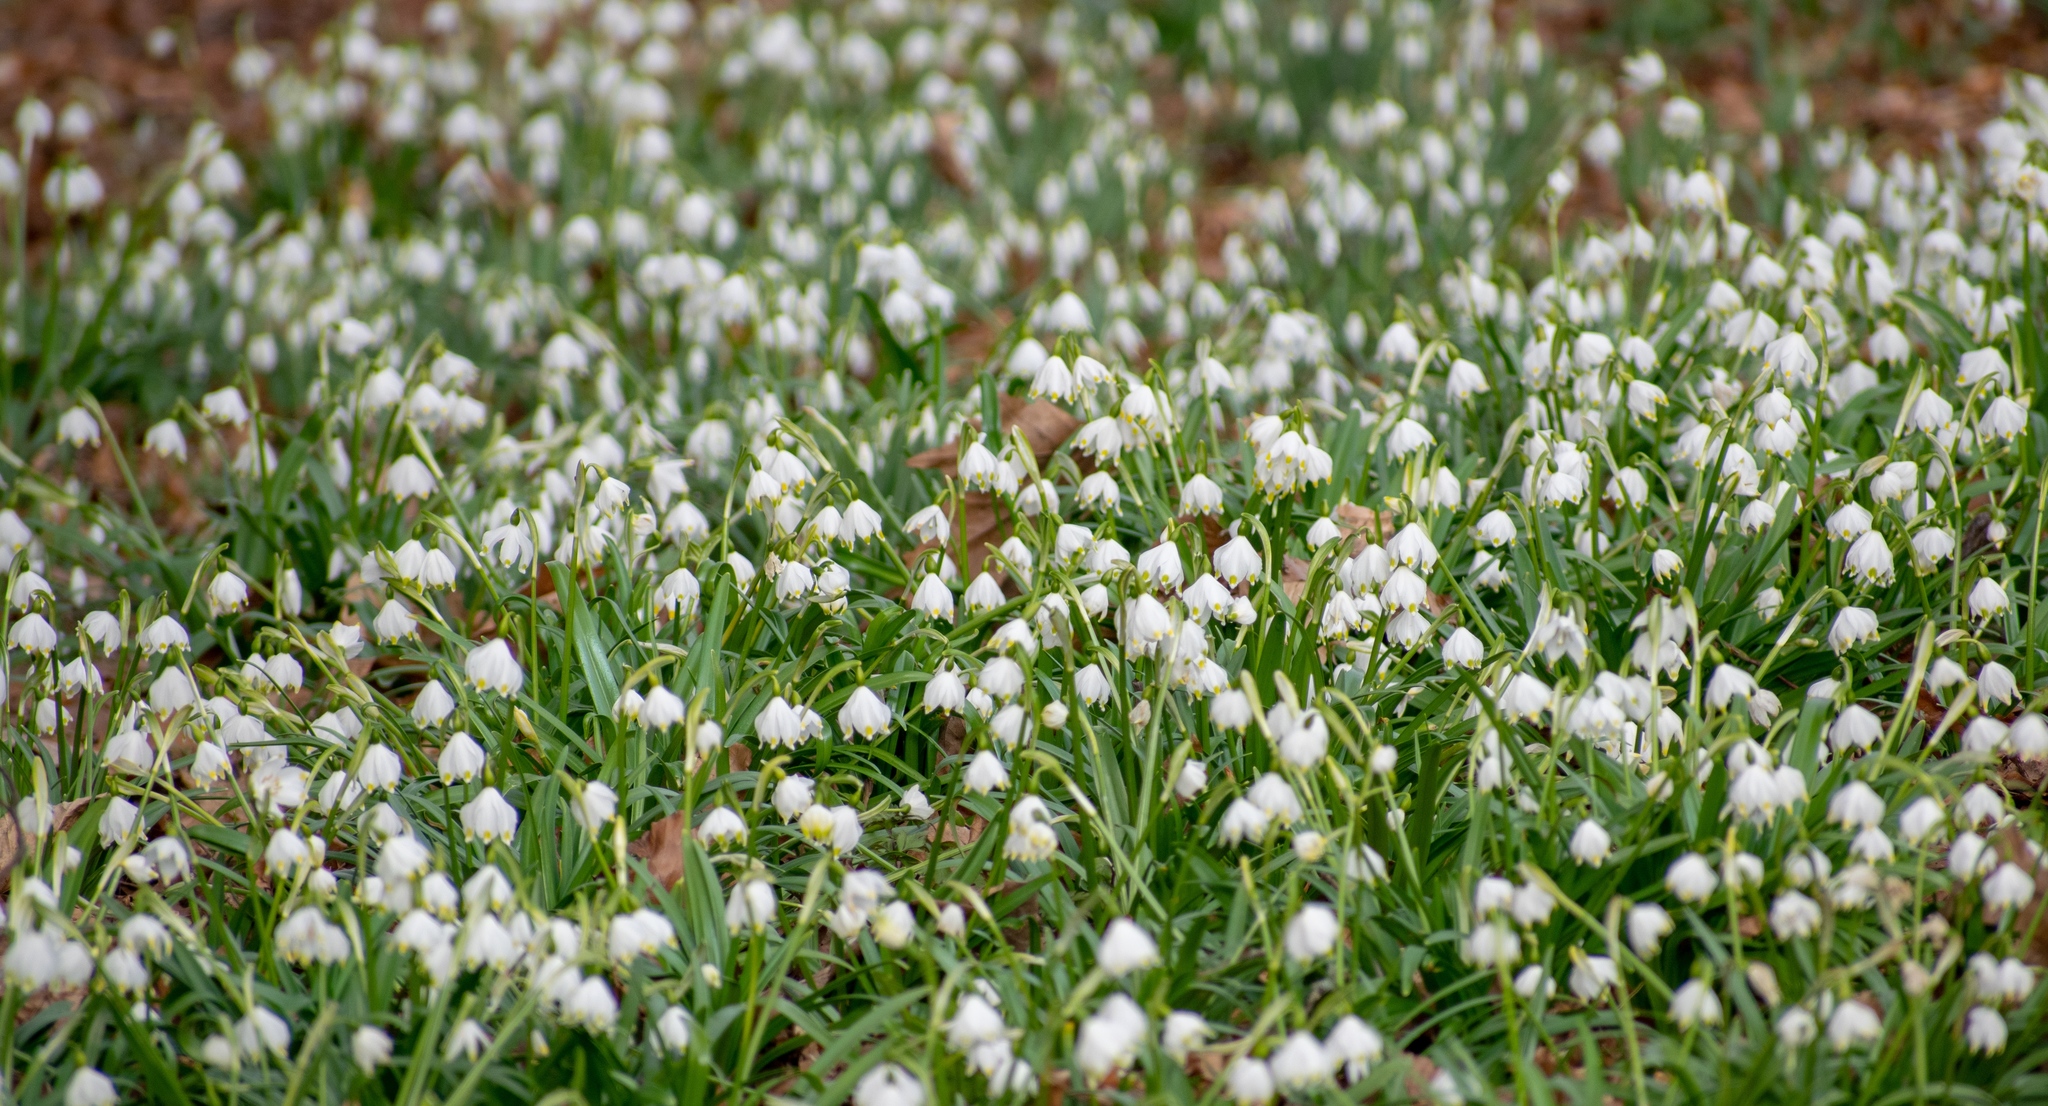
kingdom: Plantae
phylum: Tracheophyta
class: Liliopsida
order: Asparagales
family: Amaryllidaceae
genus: Leucojum
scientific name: Leucojum vernum
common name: Spring snowflake
